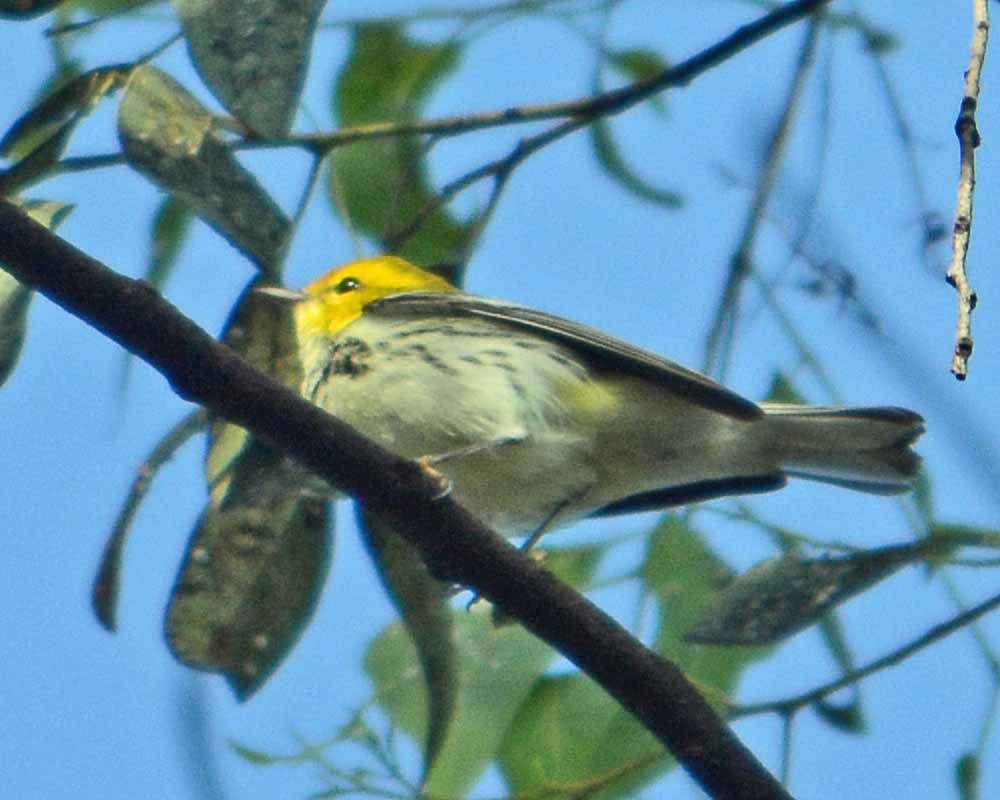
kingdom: Animalia
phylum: Chordata
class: Aves
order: Passeriformes
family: Parulidae
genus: Setophaga
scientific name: Setophaga virens
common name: Black-throated green warbler
